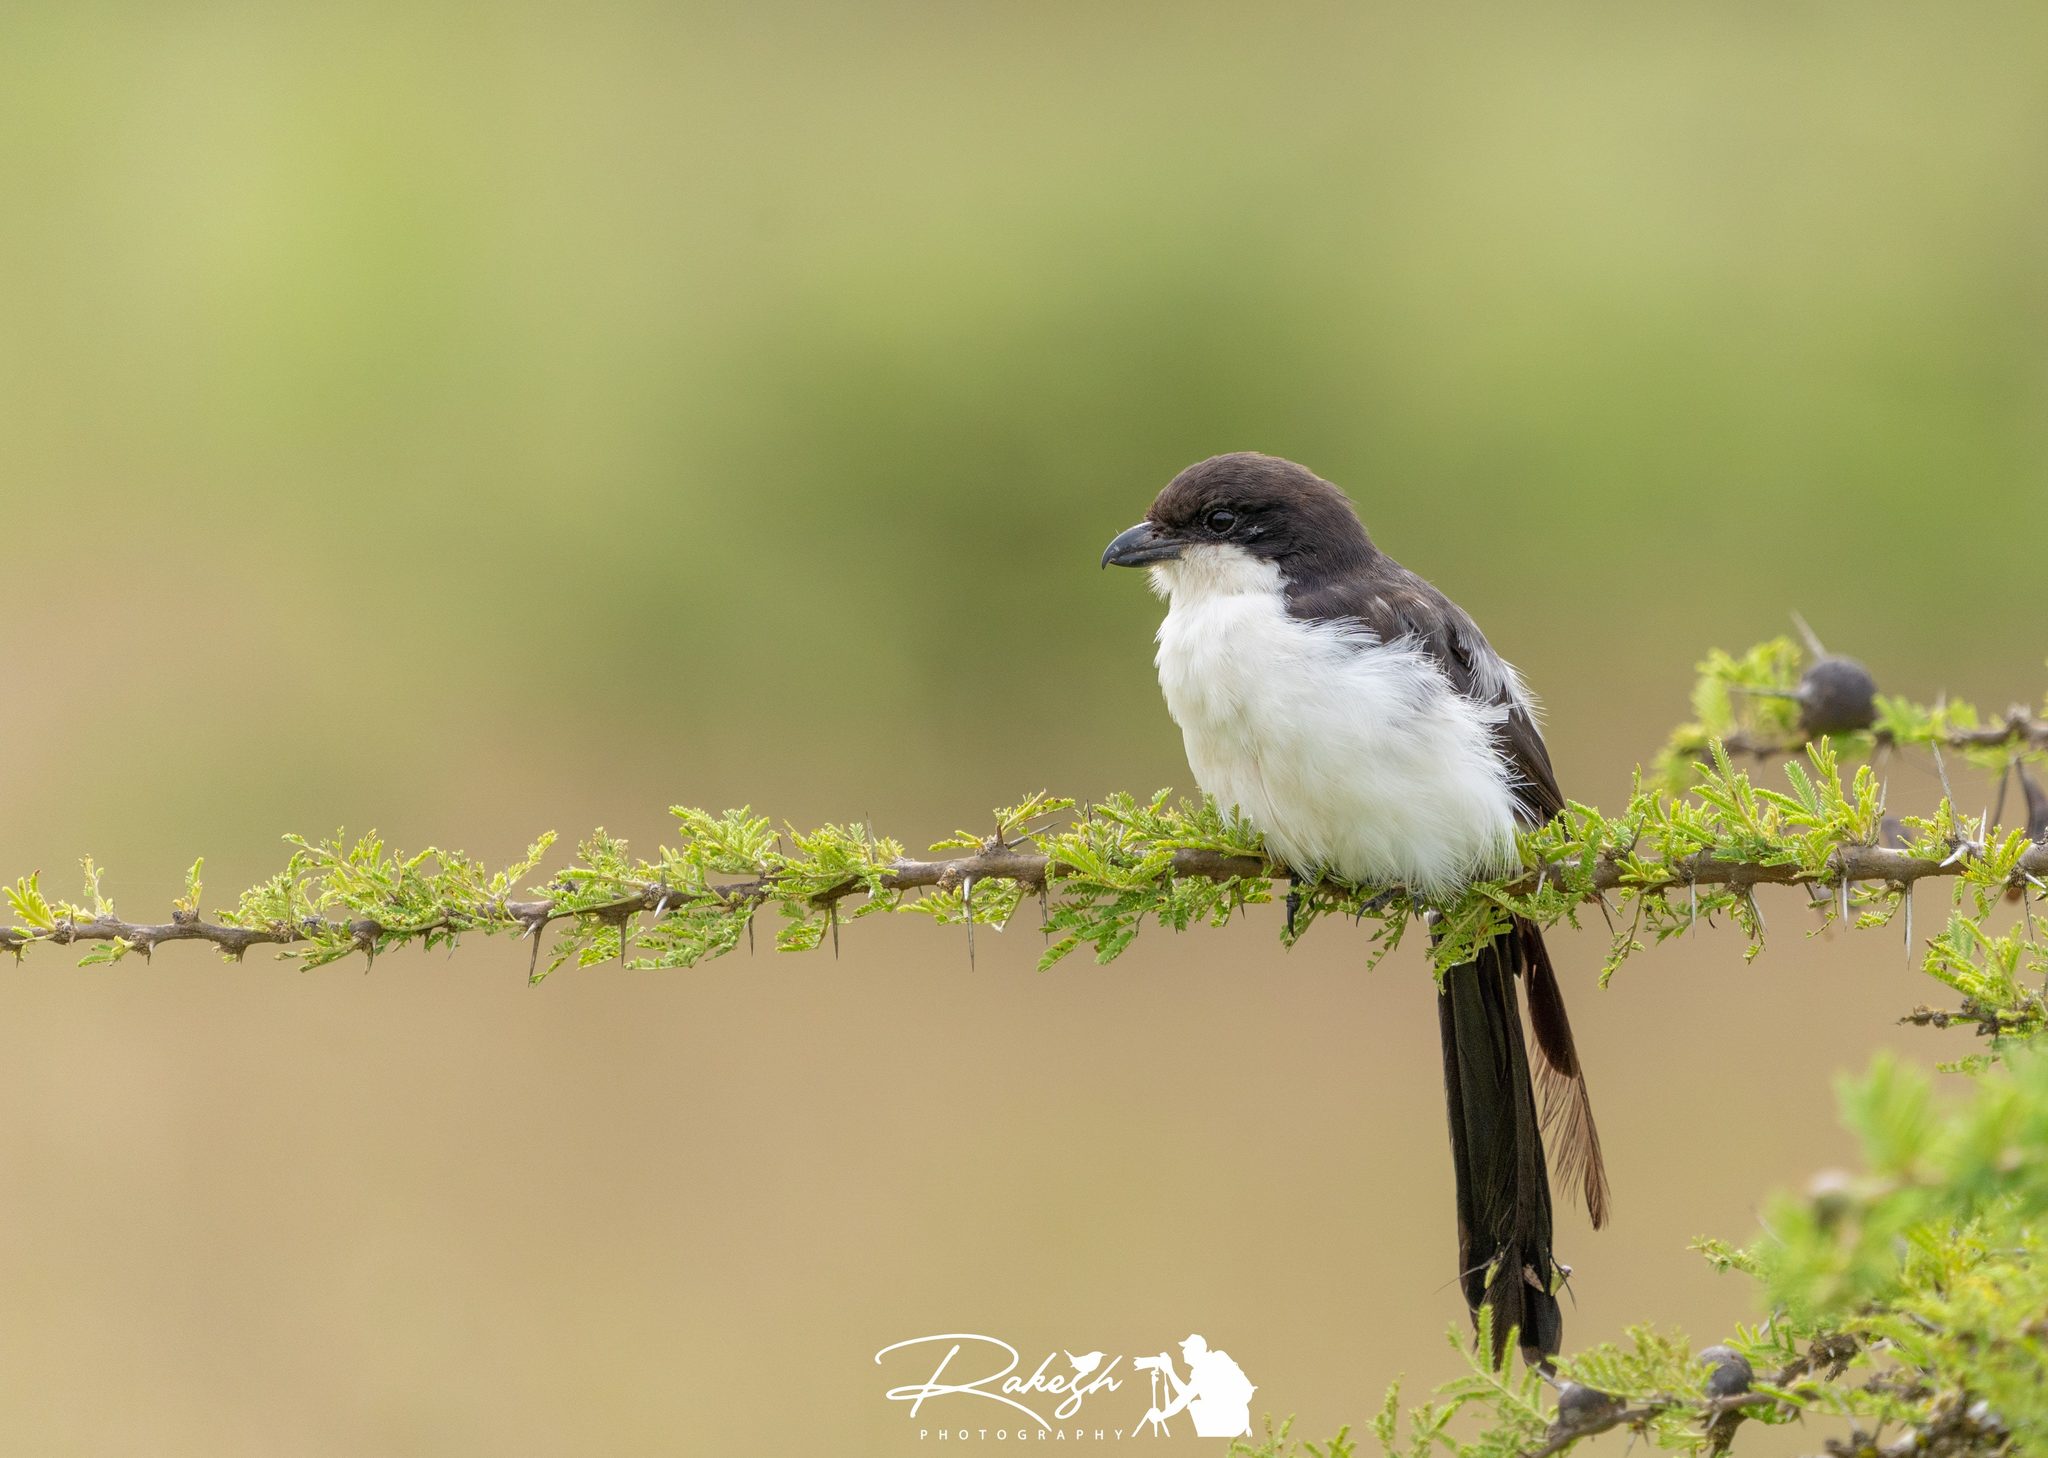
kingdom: Animalia
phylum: Chordata
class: Aves
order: Passeriformes
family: Laniidae
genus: Lanius
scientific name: Lanius cabanisi
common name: Long-tailed fiscal
